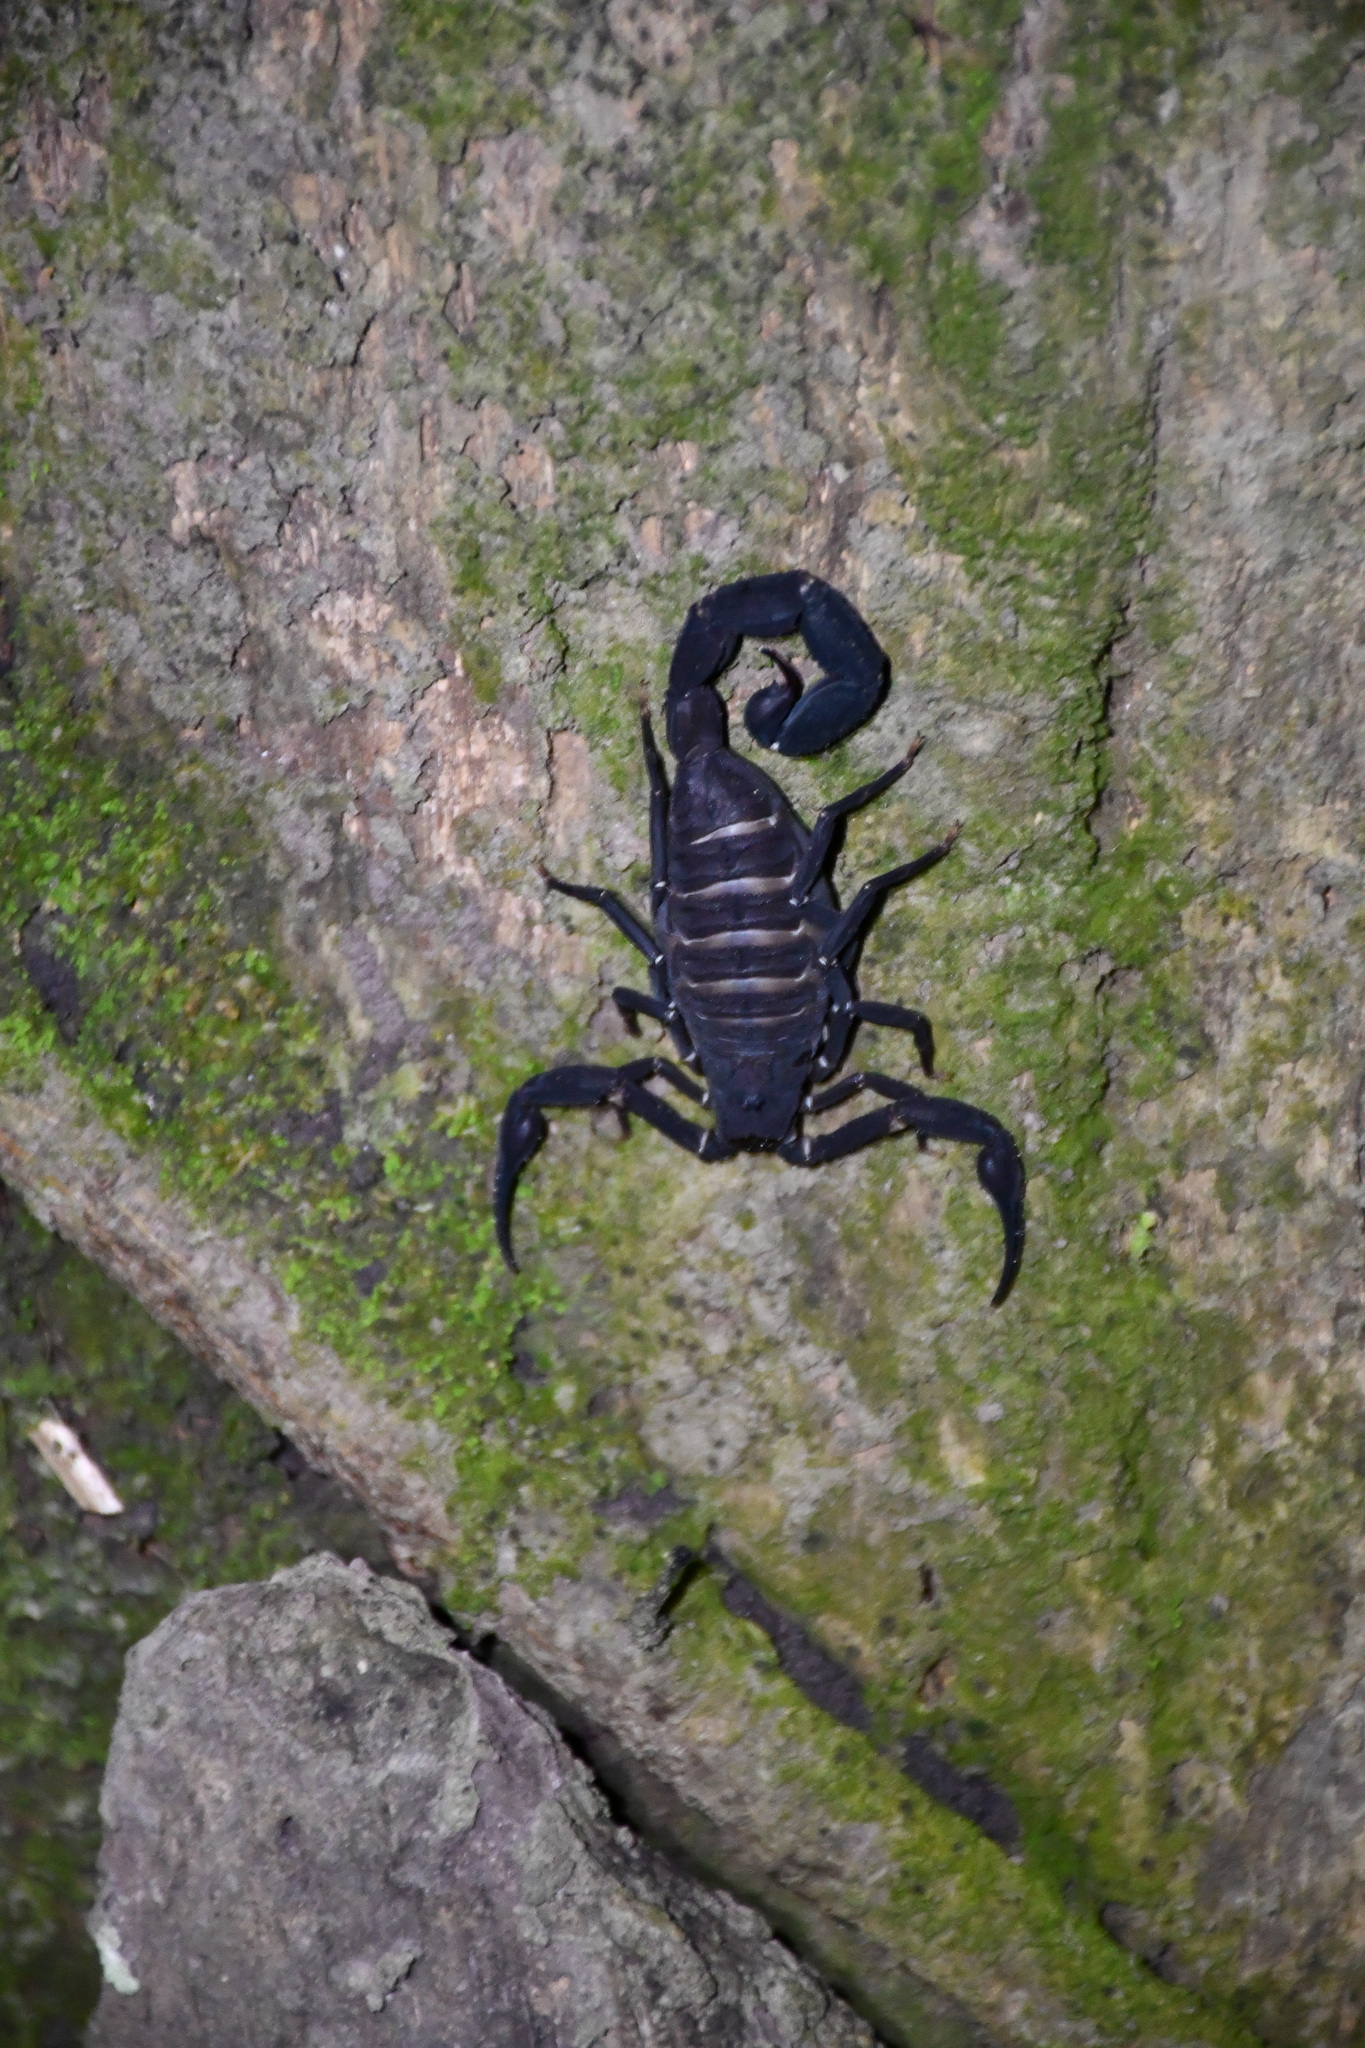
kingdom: Animalia
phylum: Arthropoda
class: Arachnida
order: Scorpiones
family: Buthidae
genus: Tityus
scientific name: Tityus pachyurus
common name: Scorpions
